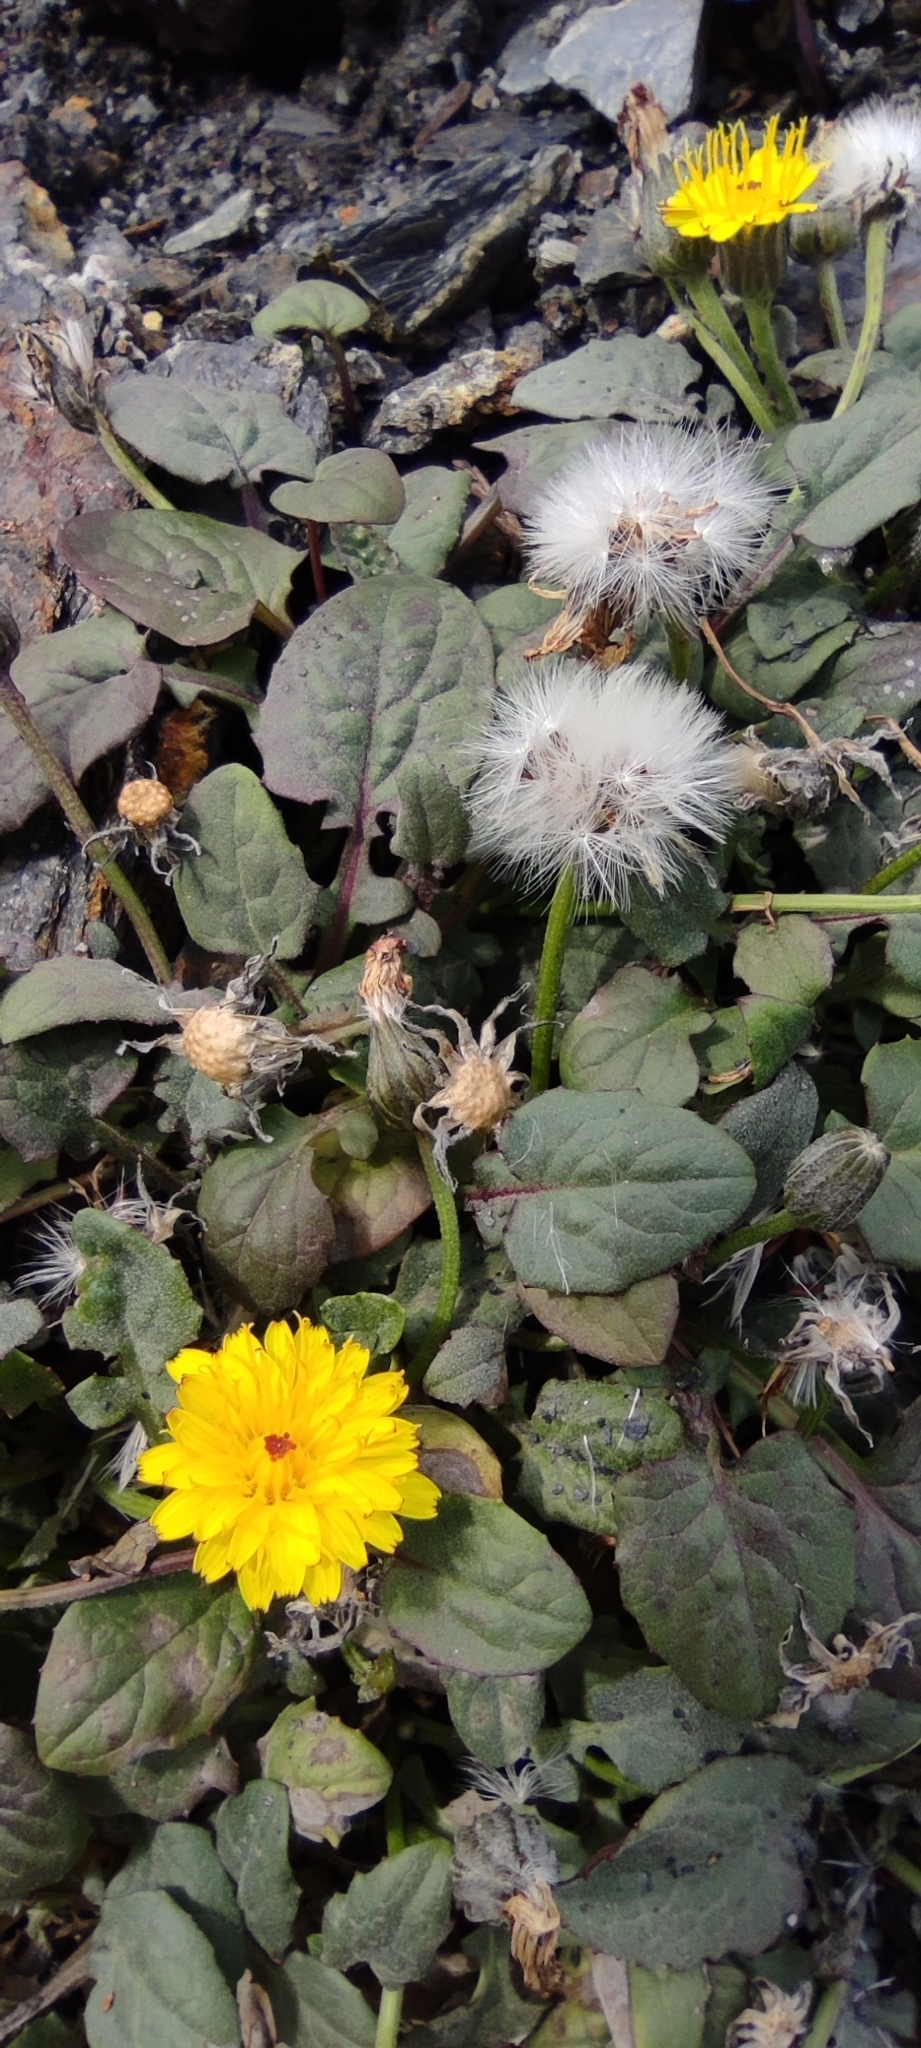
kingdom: Plantae
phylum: Tracheophyta
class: Magnoliopsida
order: Asterales
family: Asteraceae
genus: Crepis
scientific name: Crepis pygmaea
